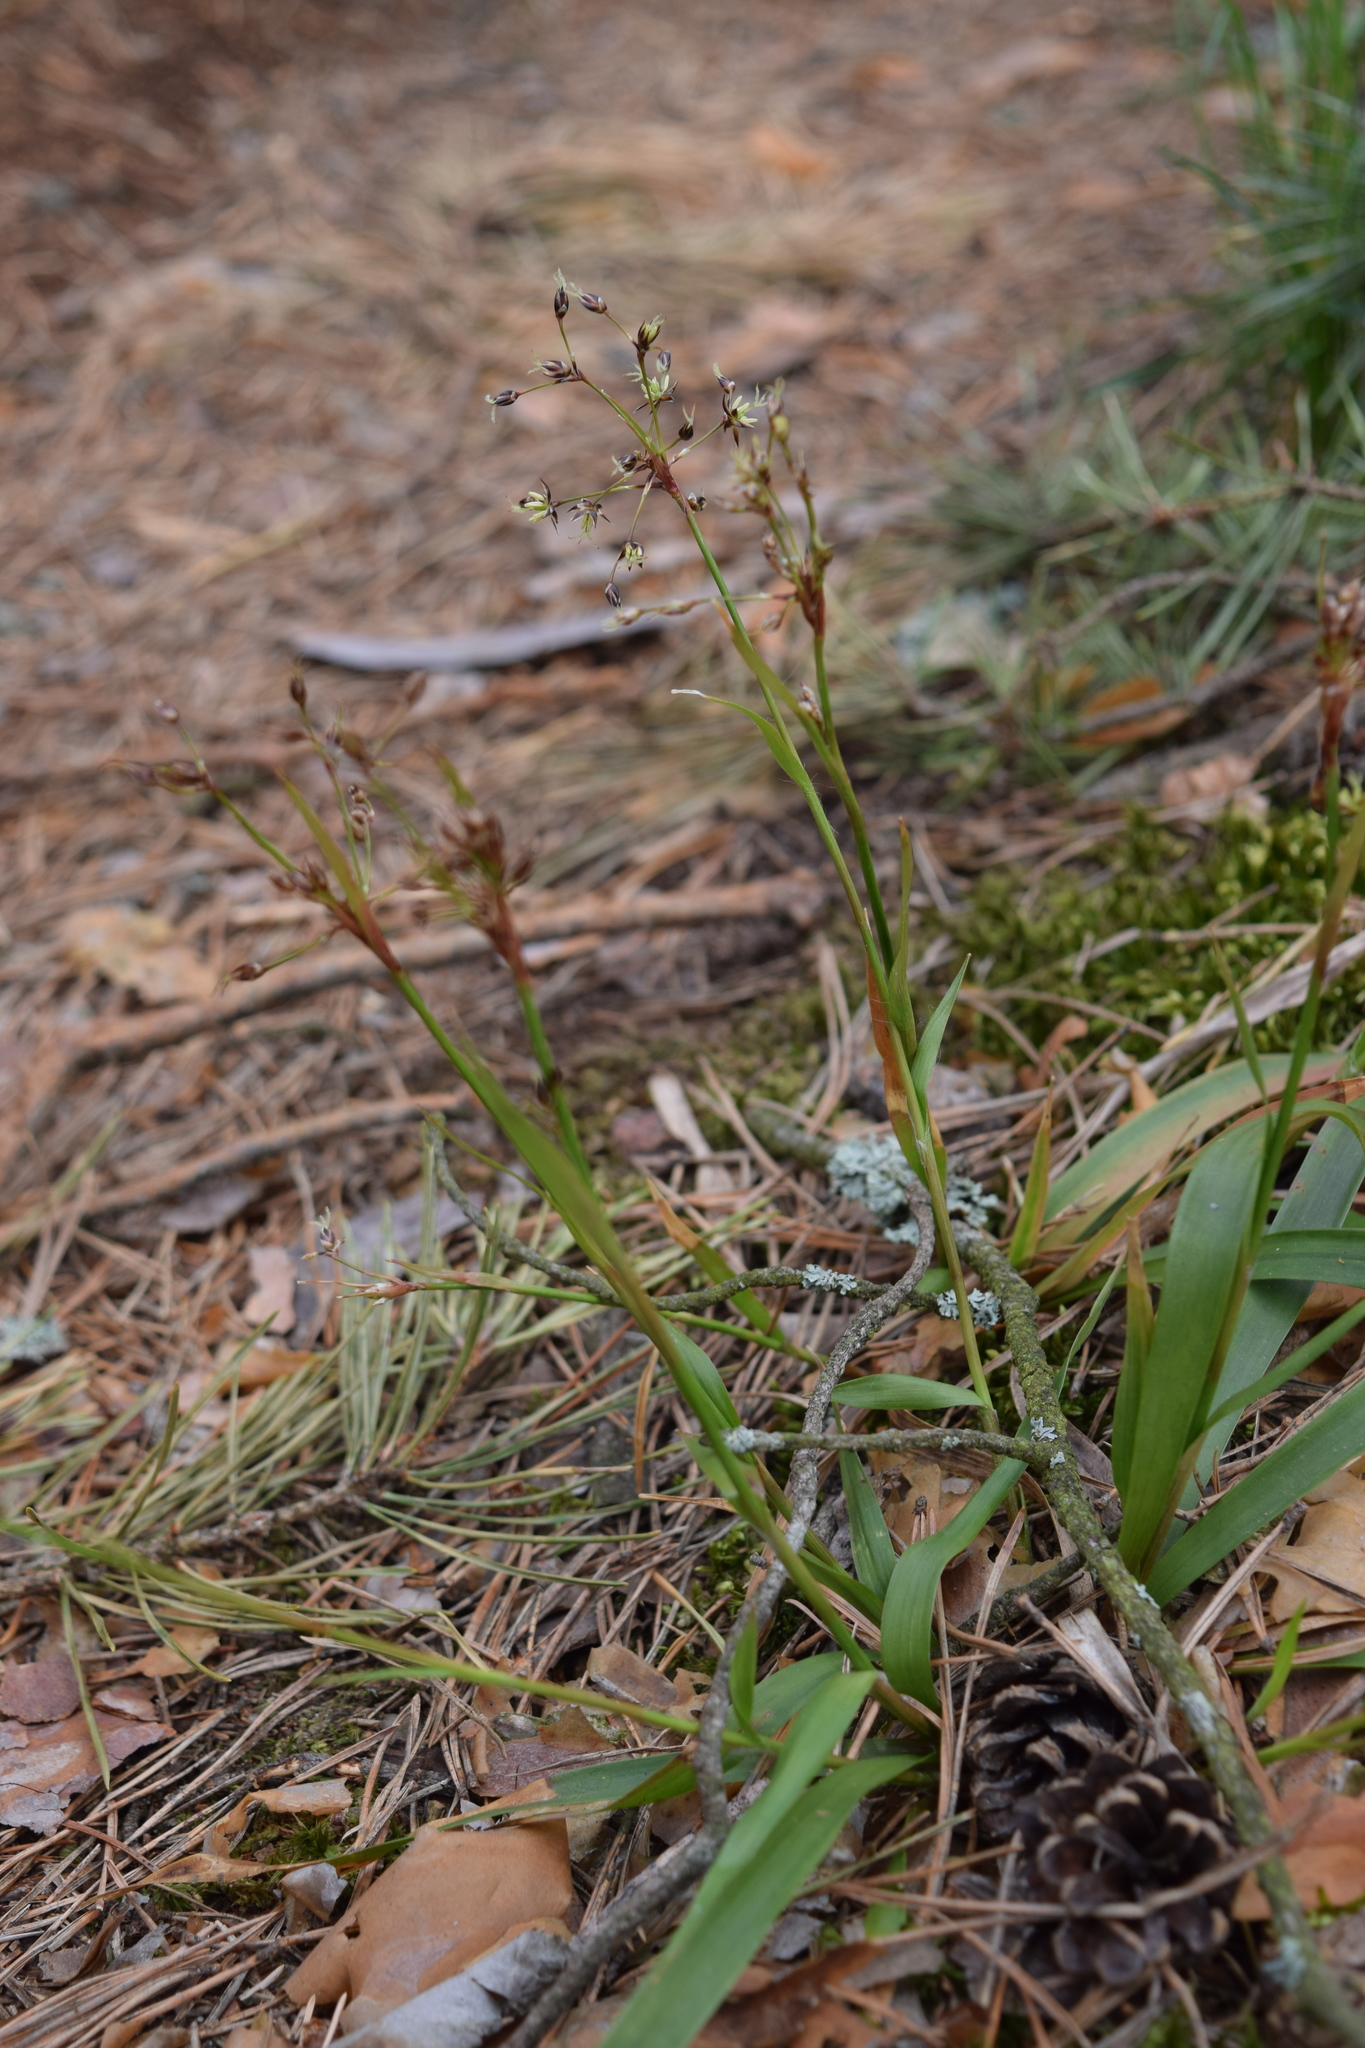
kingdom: Plantae
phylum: Tracheophyta
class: Liliopsida
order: Poales
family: Juncaceae
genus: Luzula
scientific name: Luzula pilosa
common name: Hairy wood-rush
